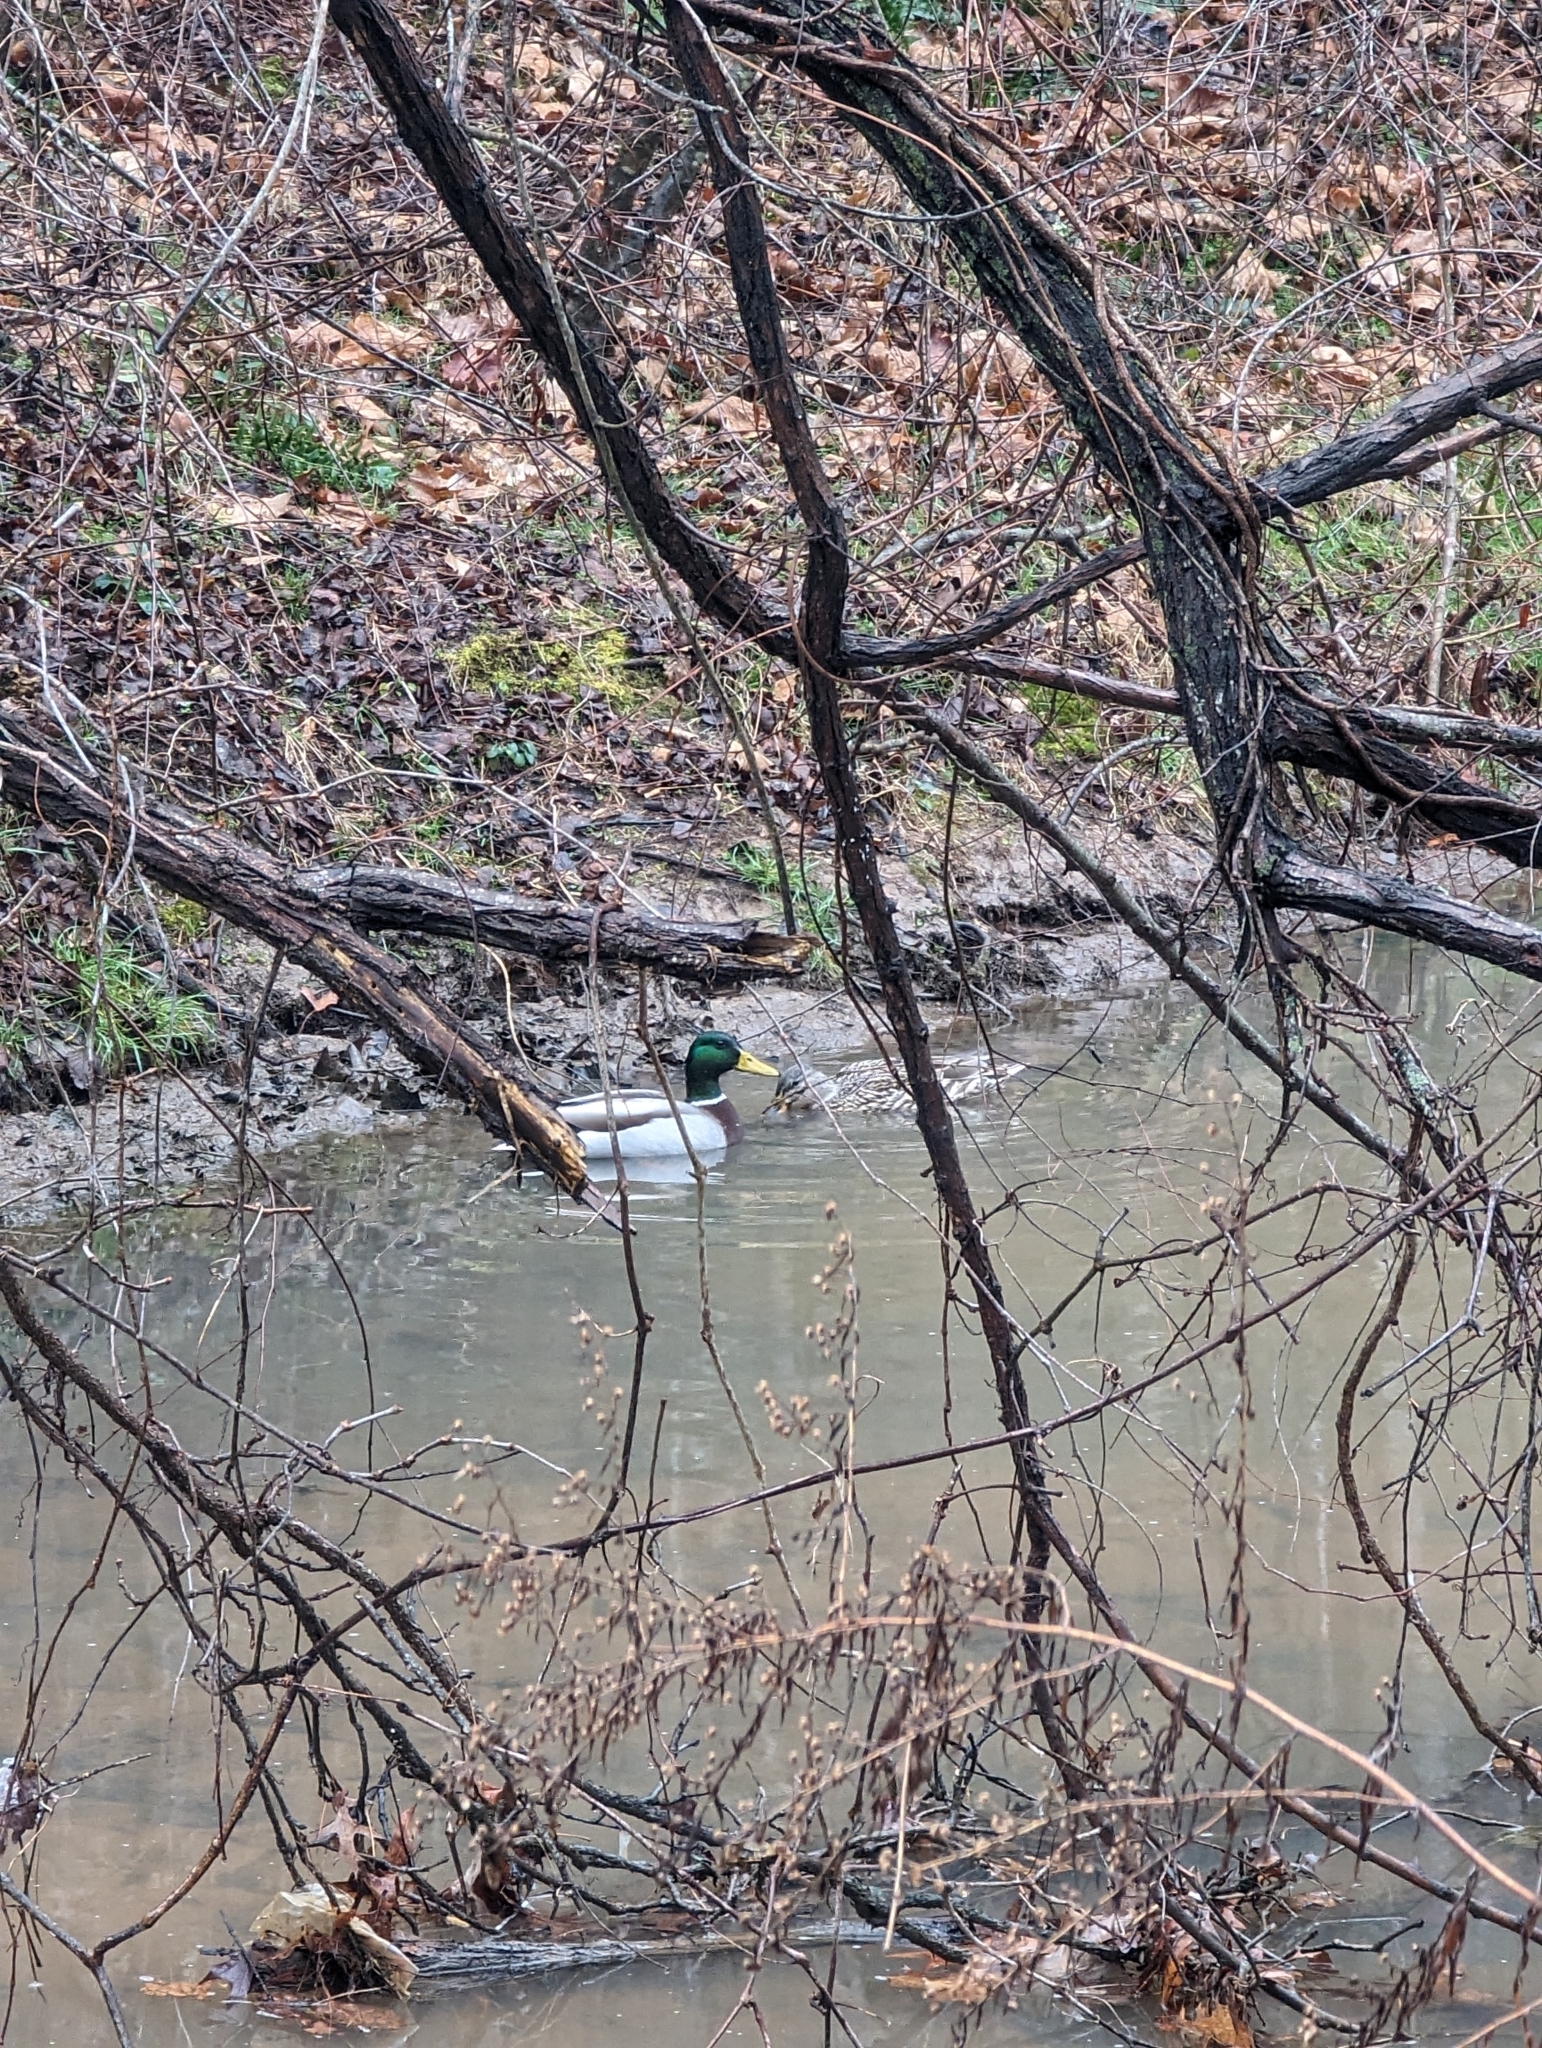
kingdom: Animalia
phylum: Chordata
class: Aves
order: Anseriformes
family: Anatidae
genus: Anas
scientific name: Anas platyrhynchos
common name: Mallard
